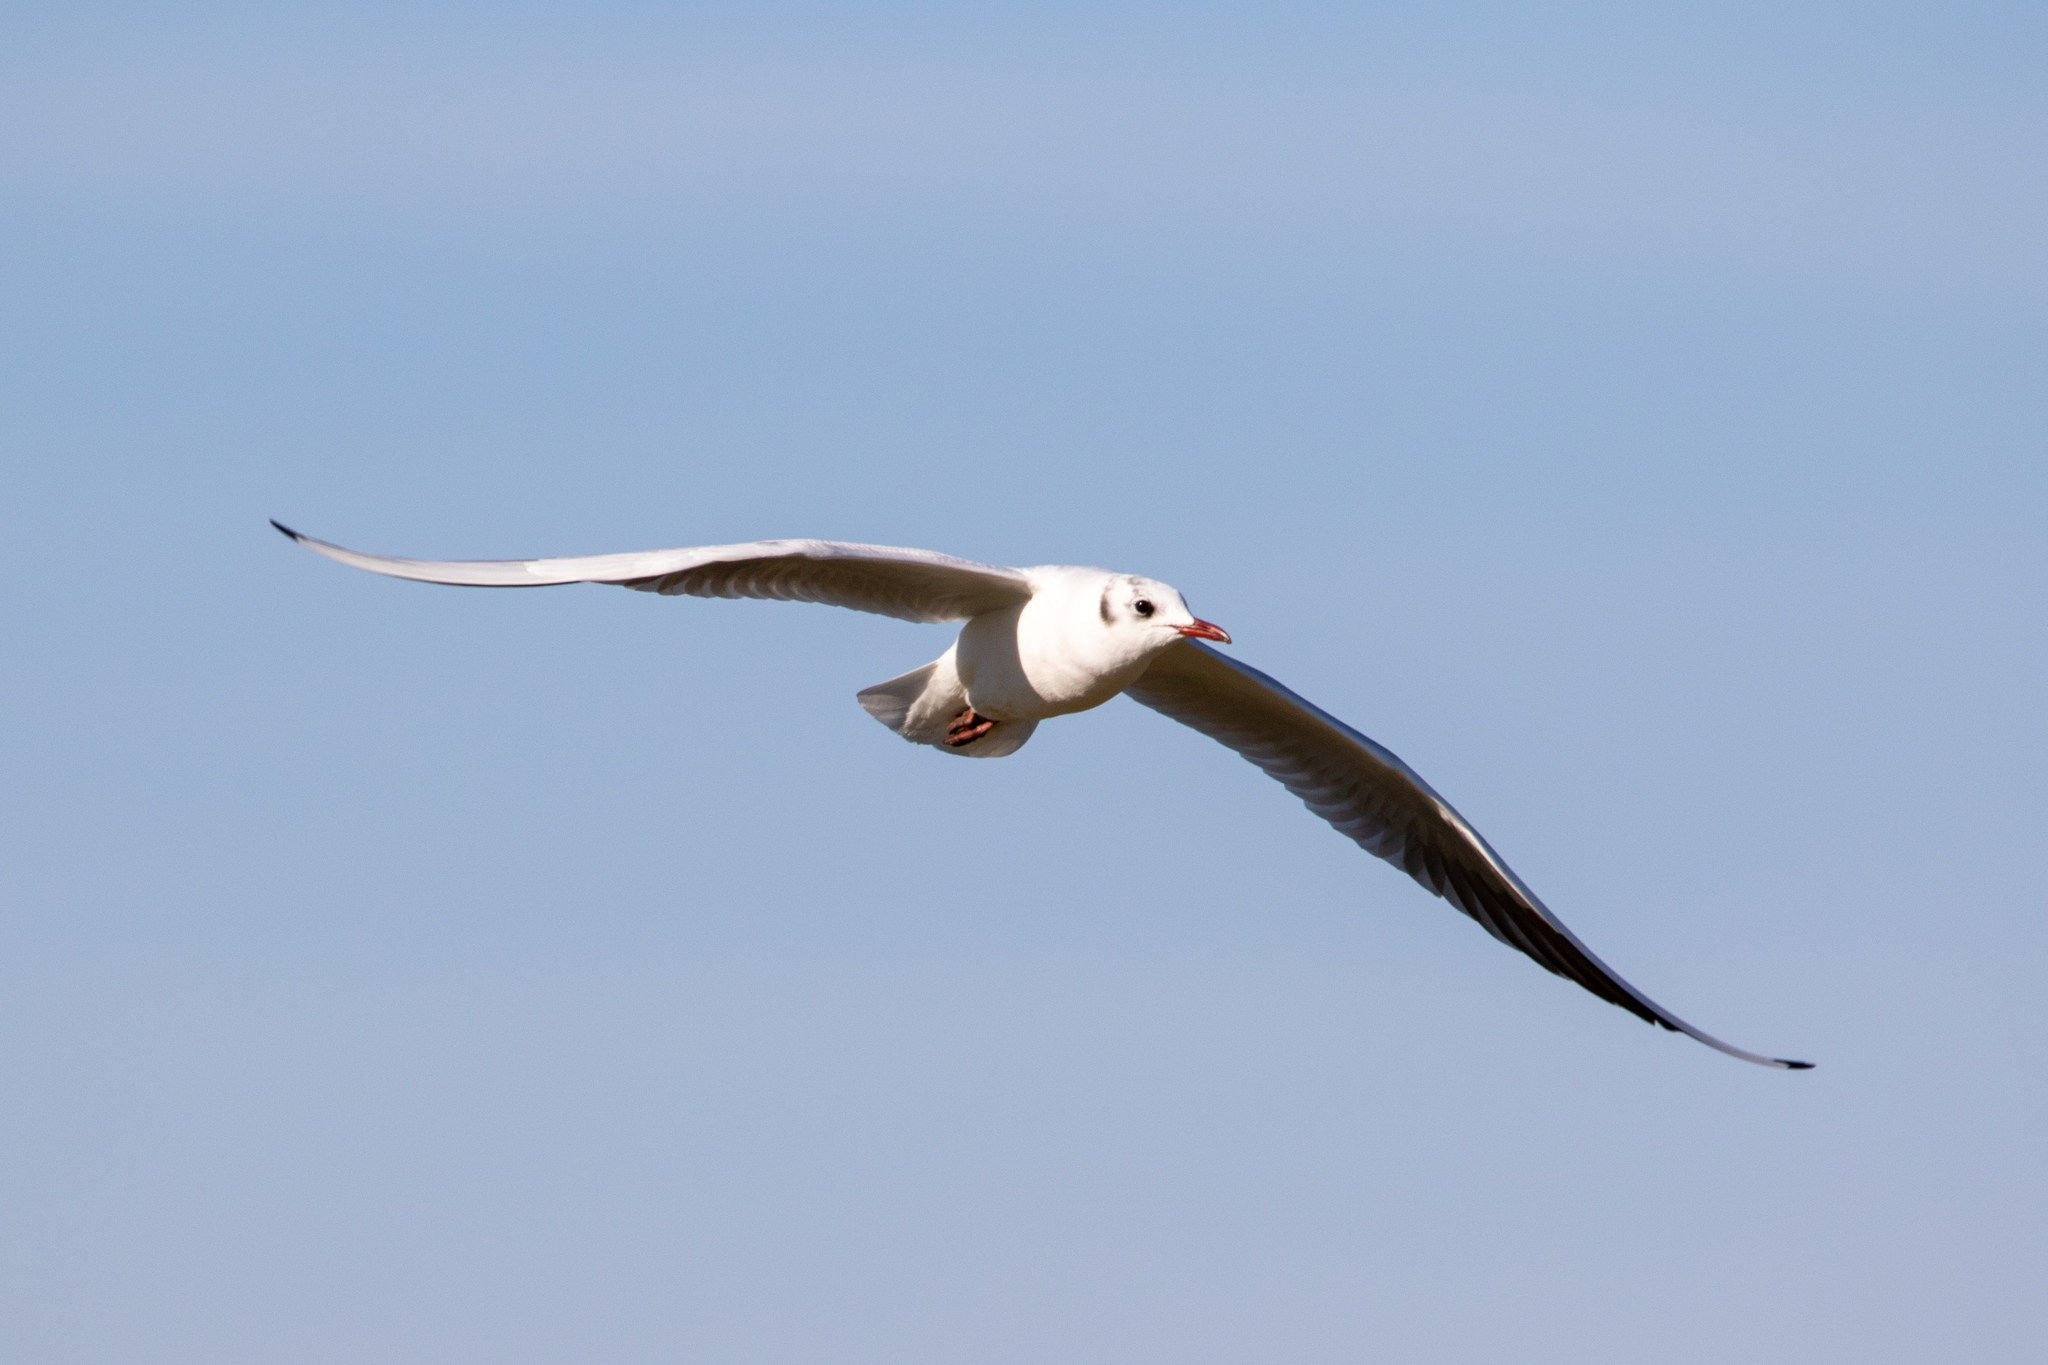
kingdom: Animalia
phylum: Chordata
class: Aves
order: Charadriiformes
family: Laridae
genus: Chroicocephalus
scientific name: Chroicocephalus ridibundus
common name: Black-headed gull
